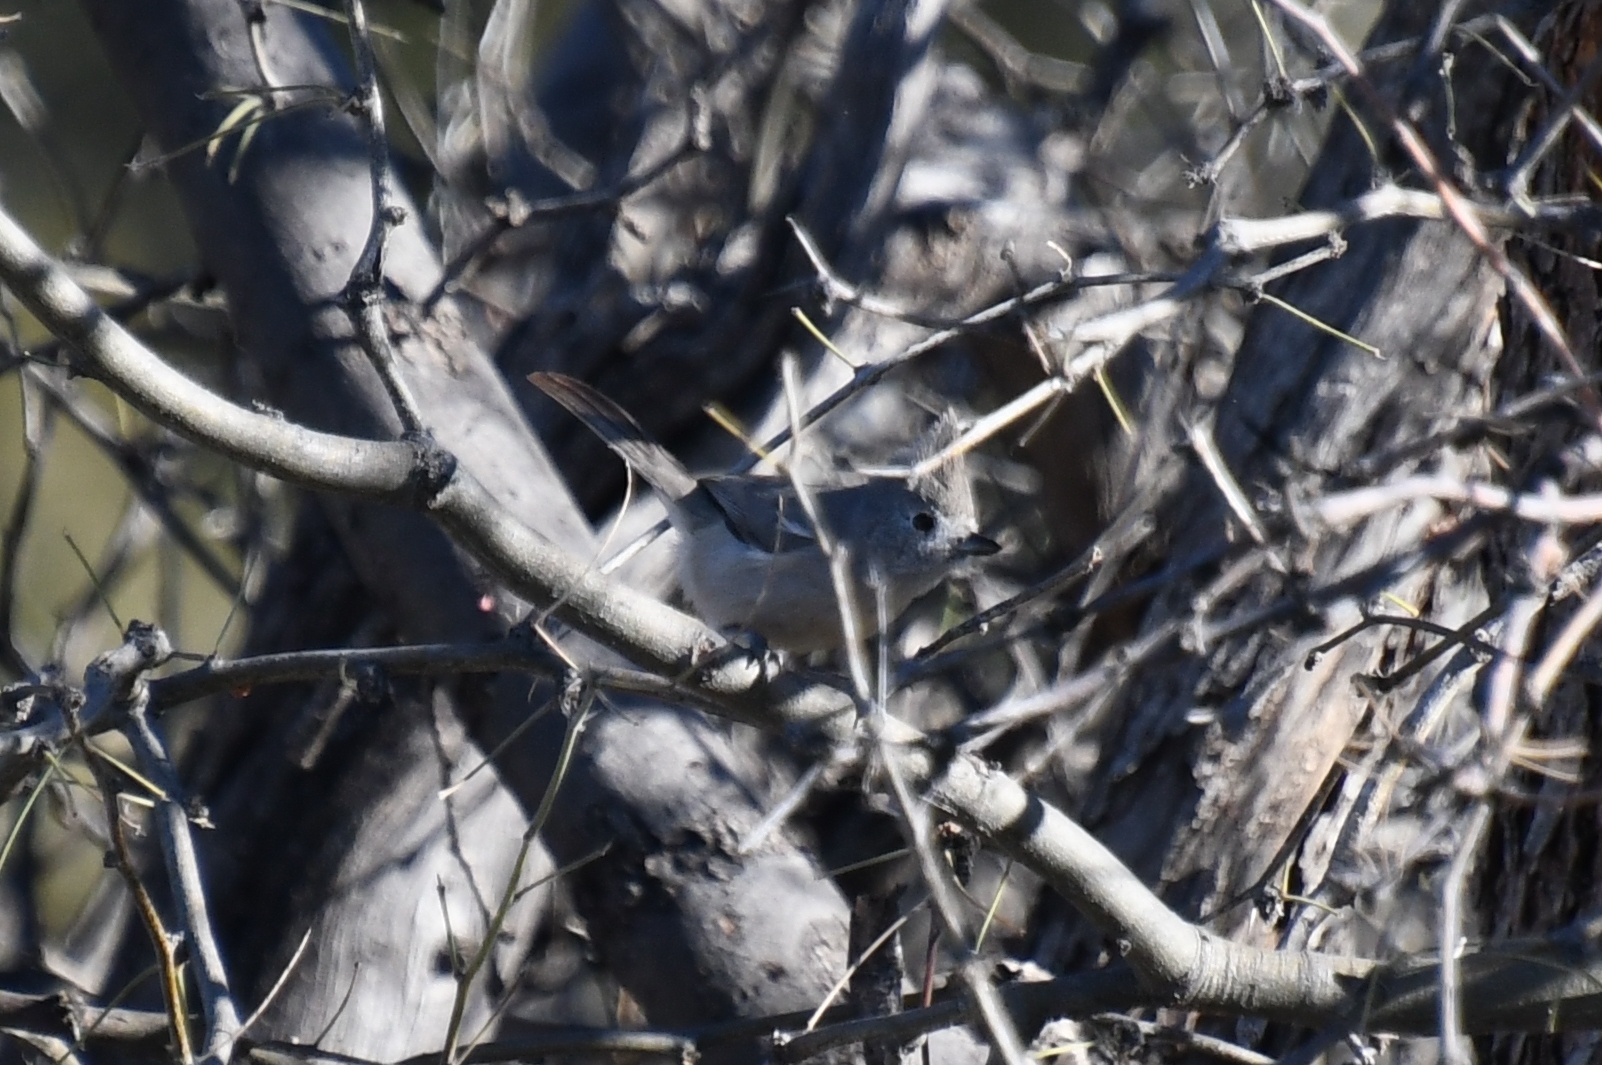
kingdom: Animalia
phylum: Chordata
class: Aves
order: Passeriformes
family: Paridae
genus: Baeolophus
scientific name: Baeolophus ridgwayi
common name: Juniper titmouse
